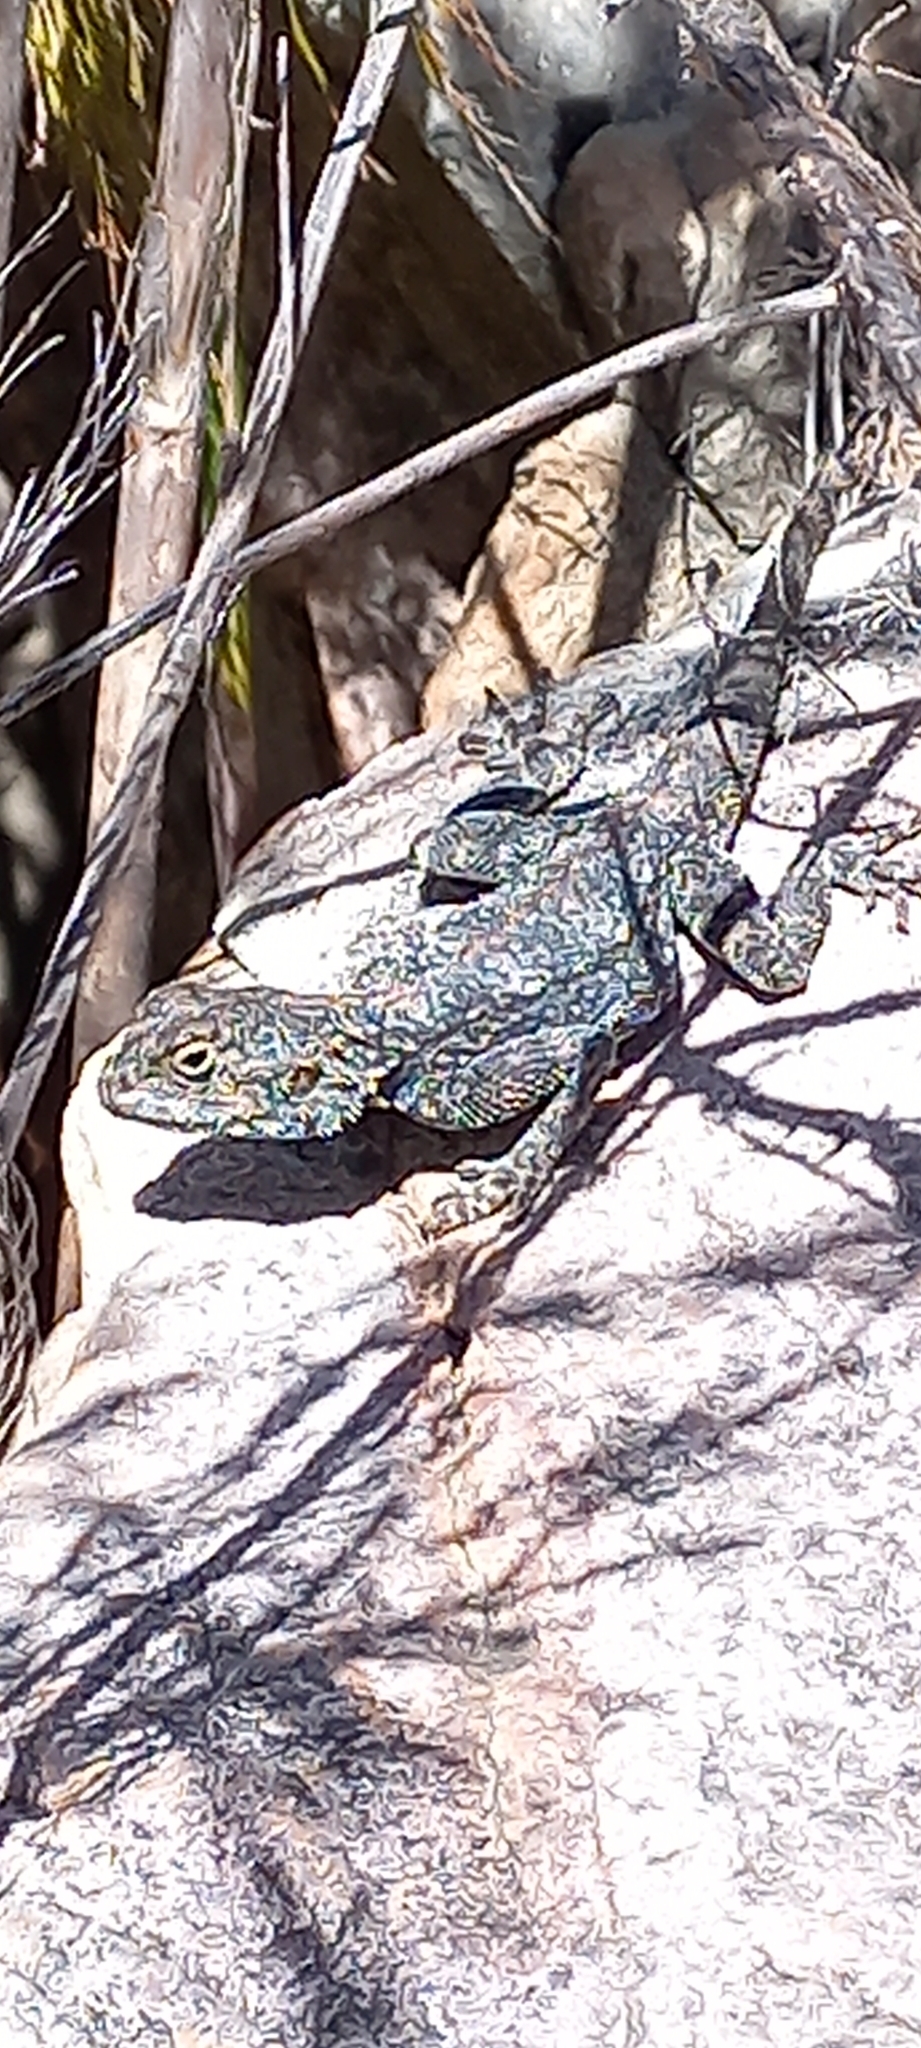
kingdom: Animalia
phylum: Chordata
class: Squamata
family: Agamidae
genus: Agama
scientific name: Agama atra
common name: Southern african rock agama
